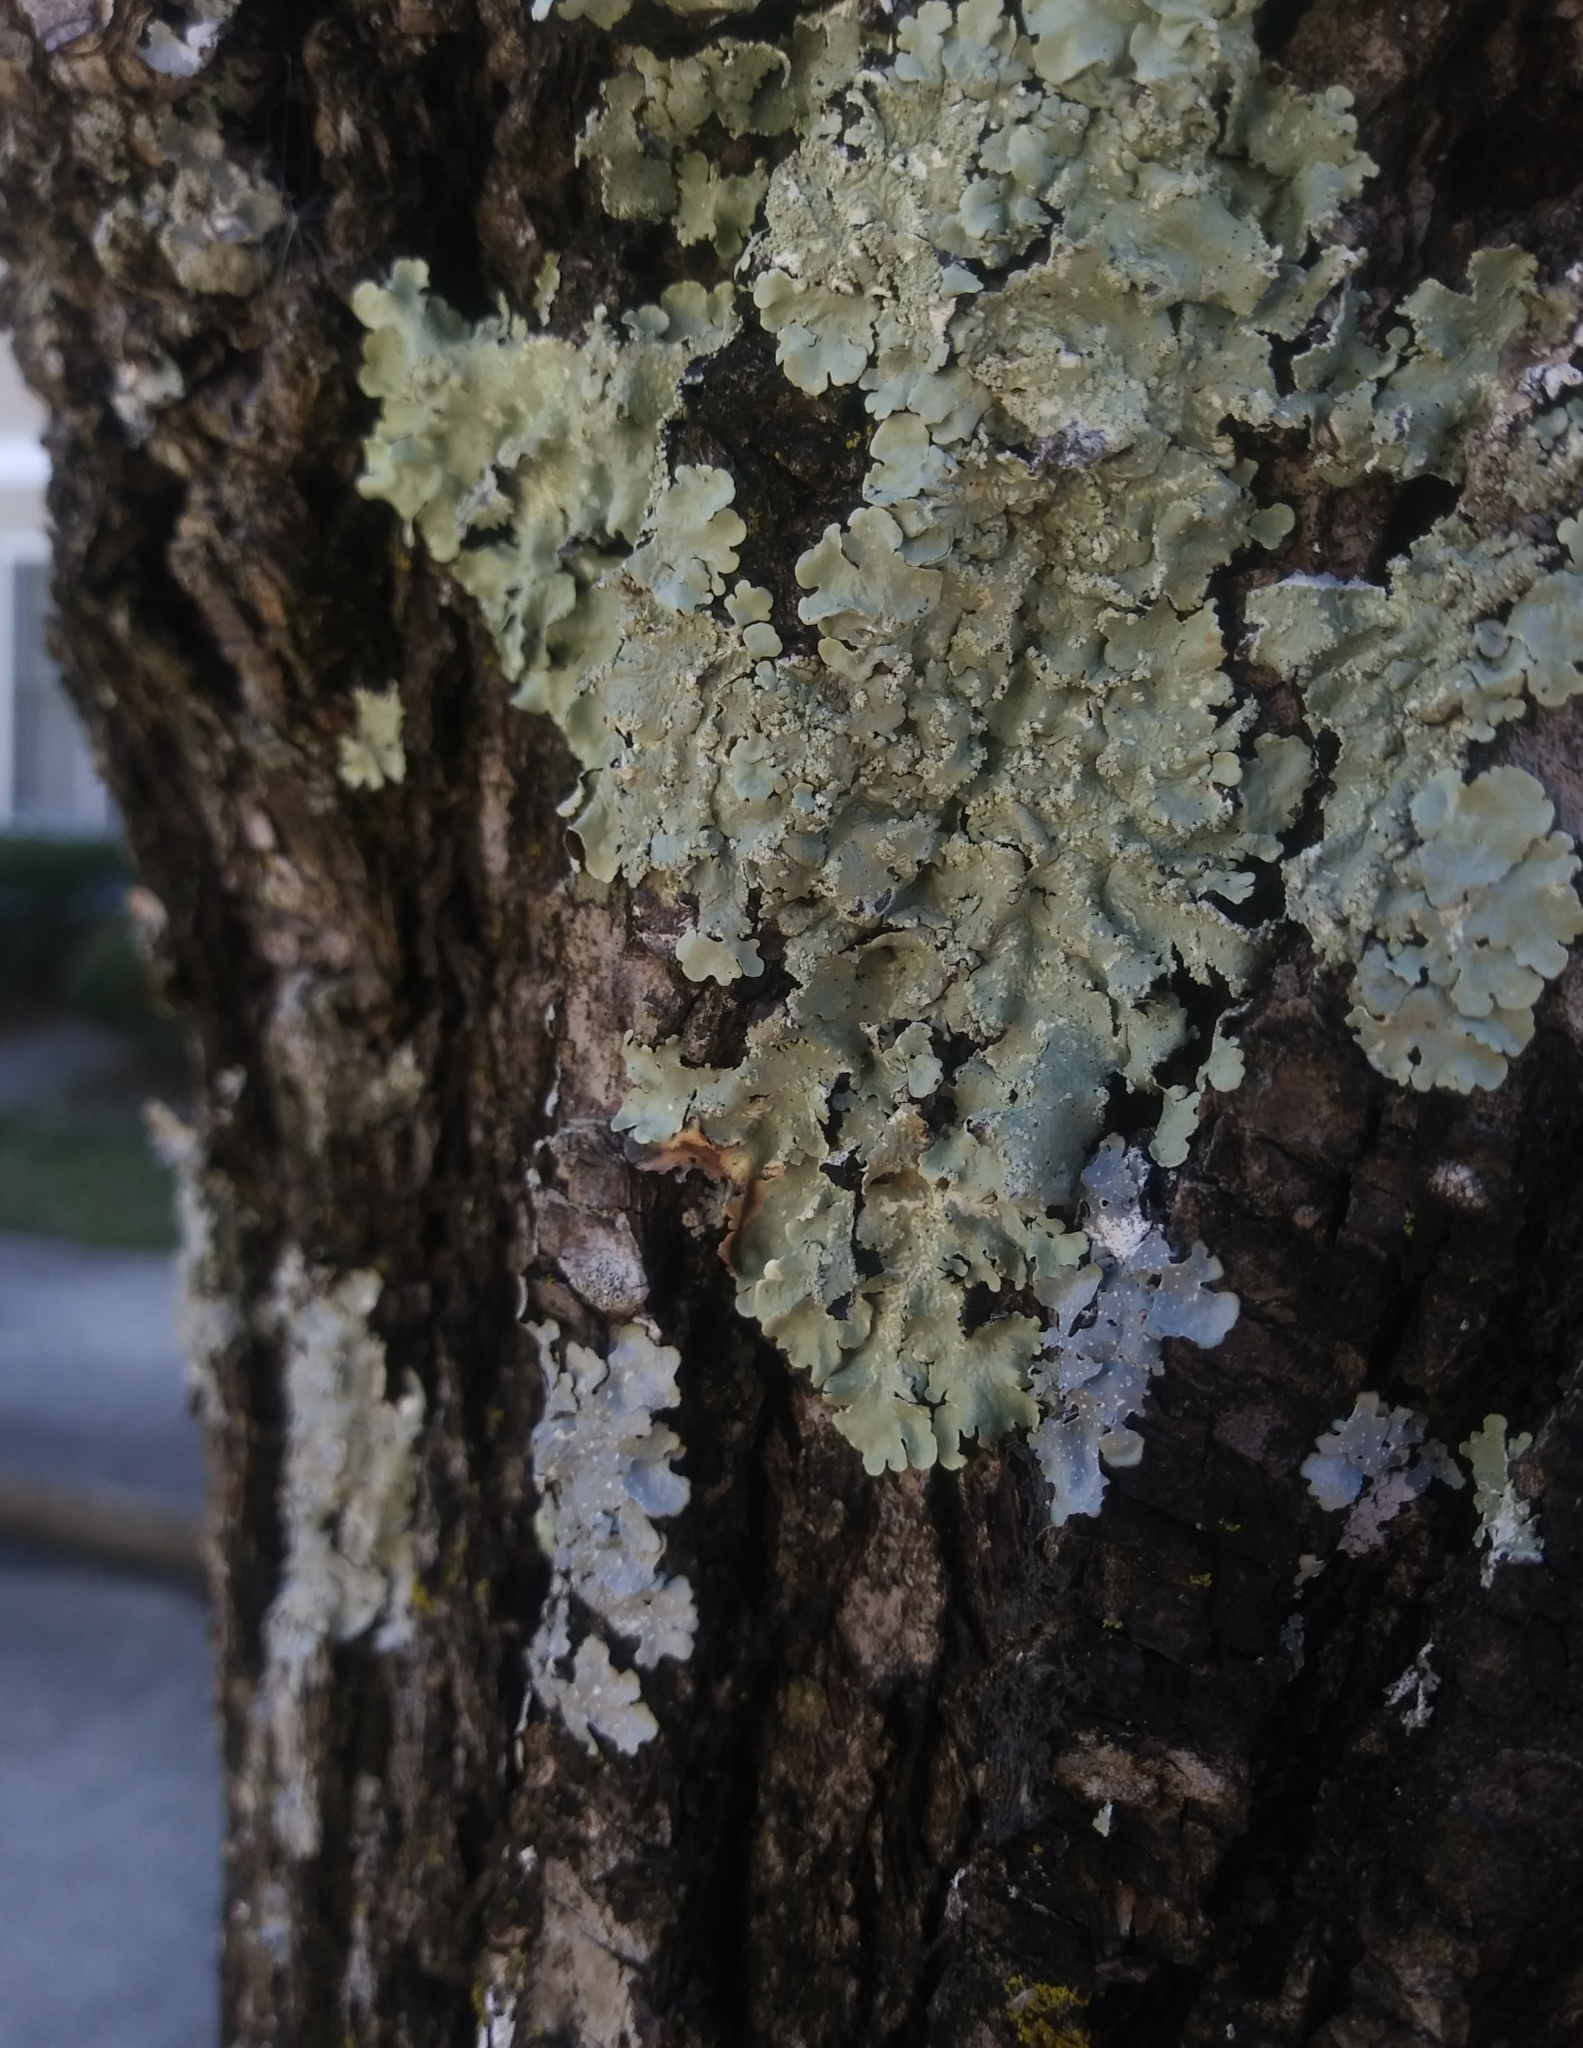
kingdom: Fungi
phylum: Ascomycota
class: Lecanoromycetes
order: Lecanorales
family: Parmeliaceae
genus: Flavoparmelia
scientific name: Flavoparmelia caperata
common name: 40-mile per hour lichen
